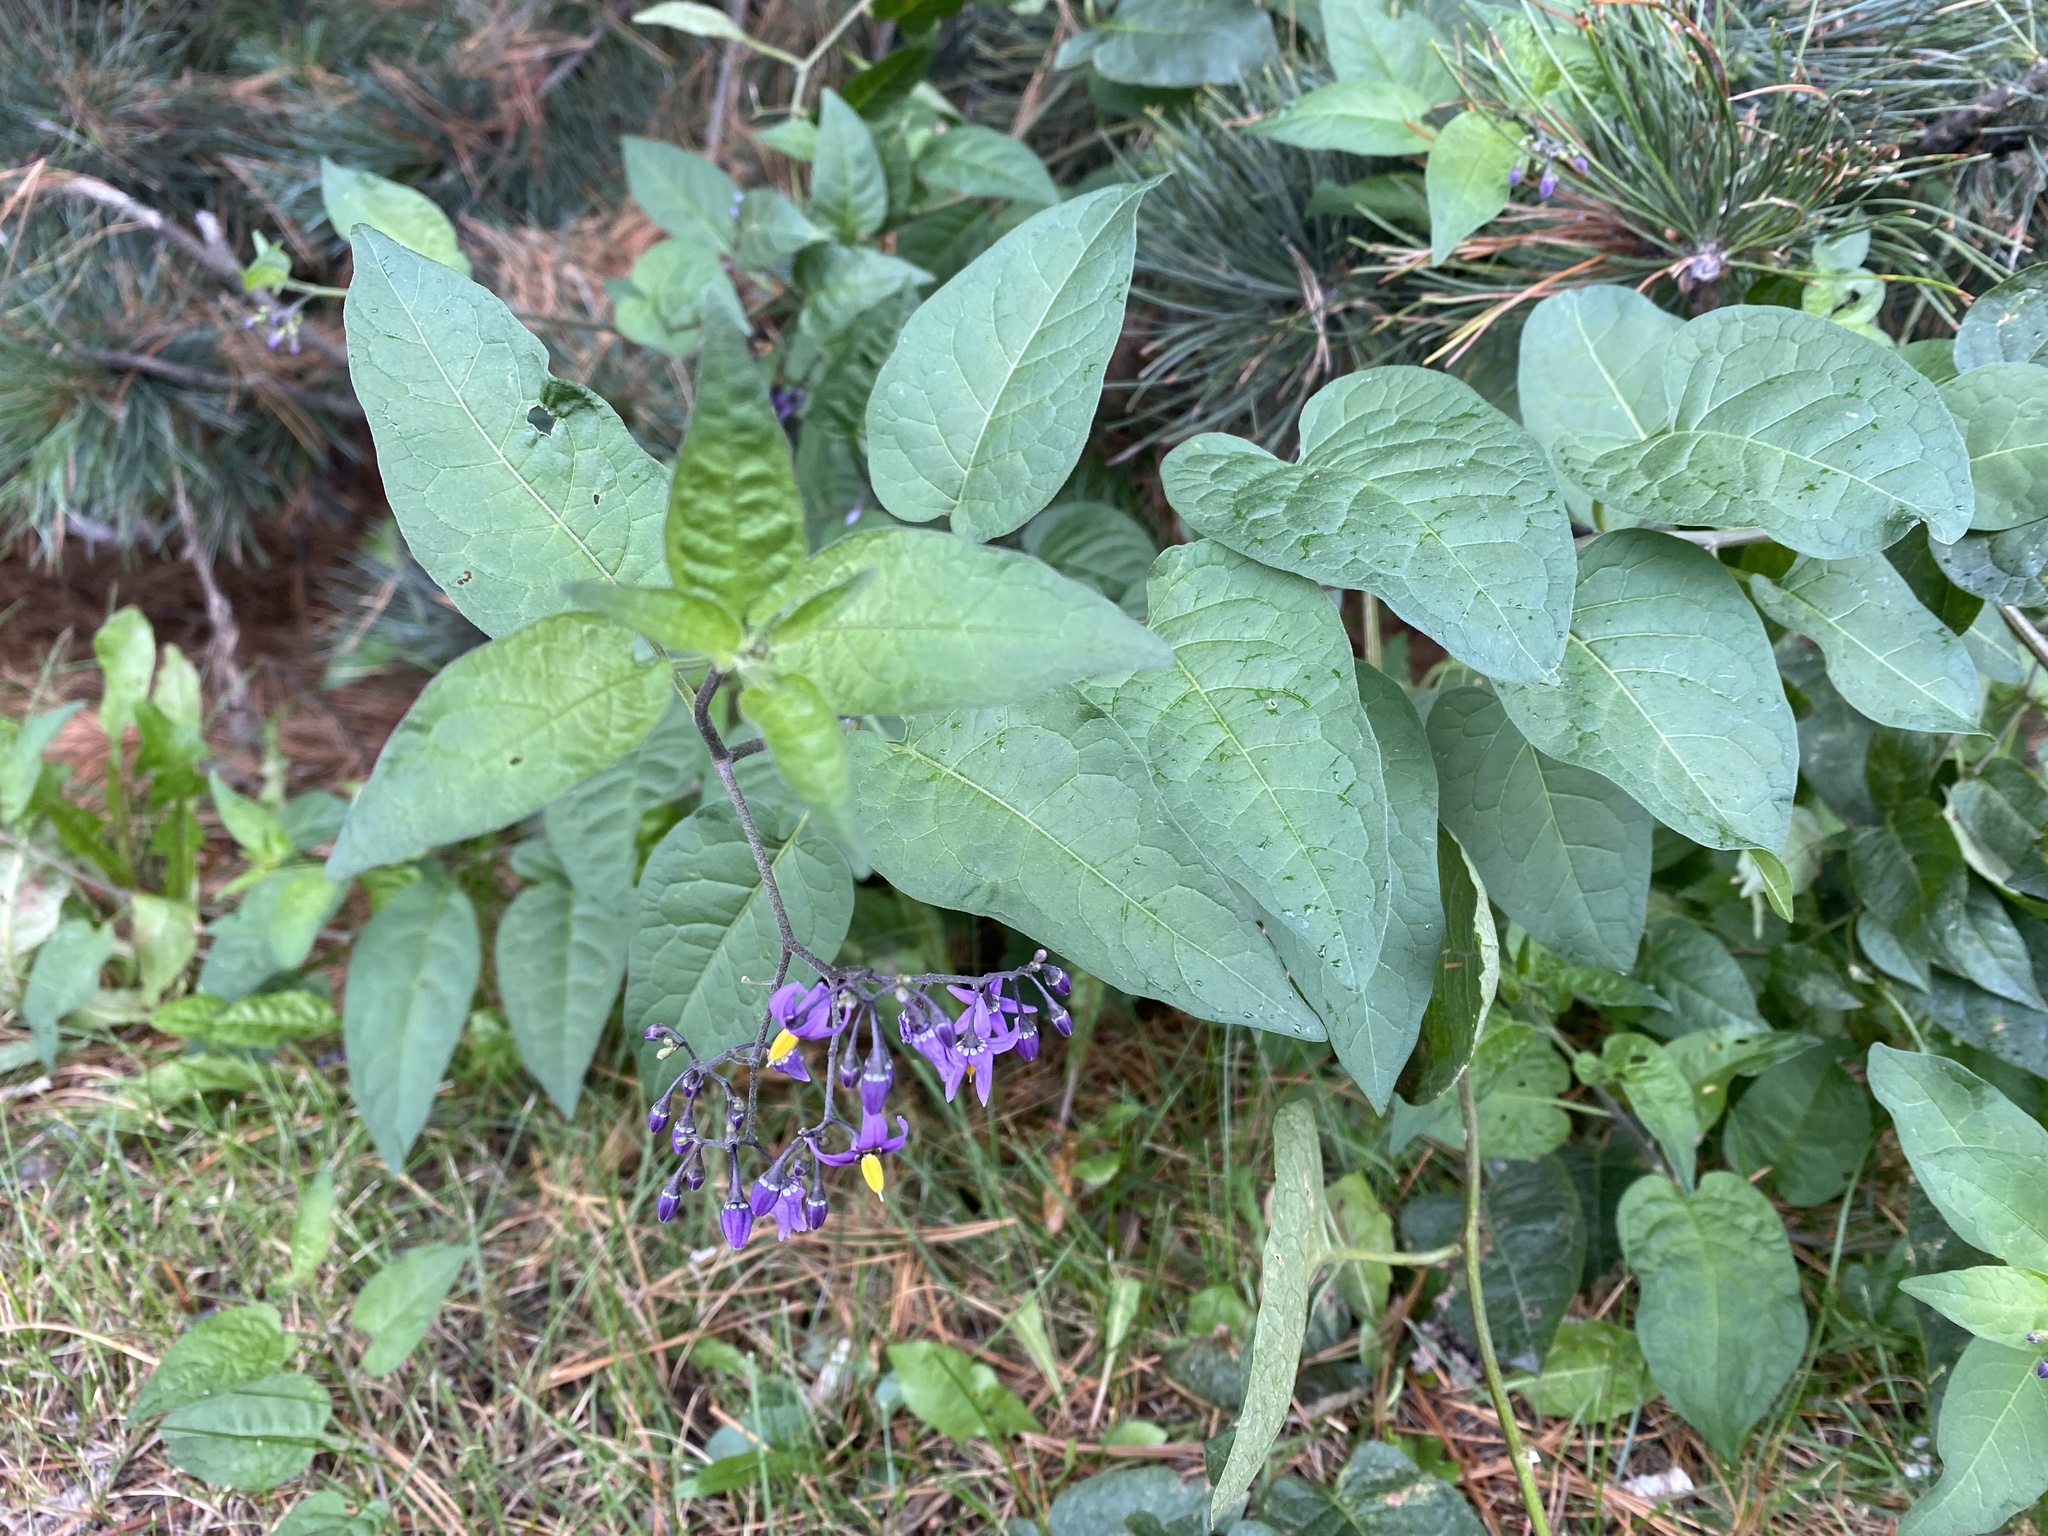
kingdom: Plantae
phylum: Tracheophyta
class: Magnoliopsida
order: Solanales
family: Solanaceae
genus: Solanum
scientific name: Solanum dulcamara
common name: Climbing nightshade
